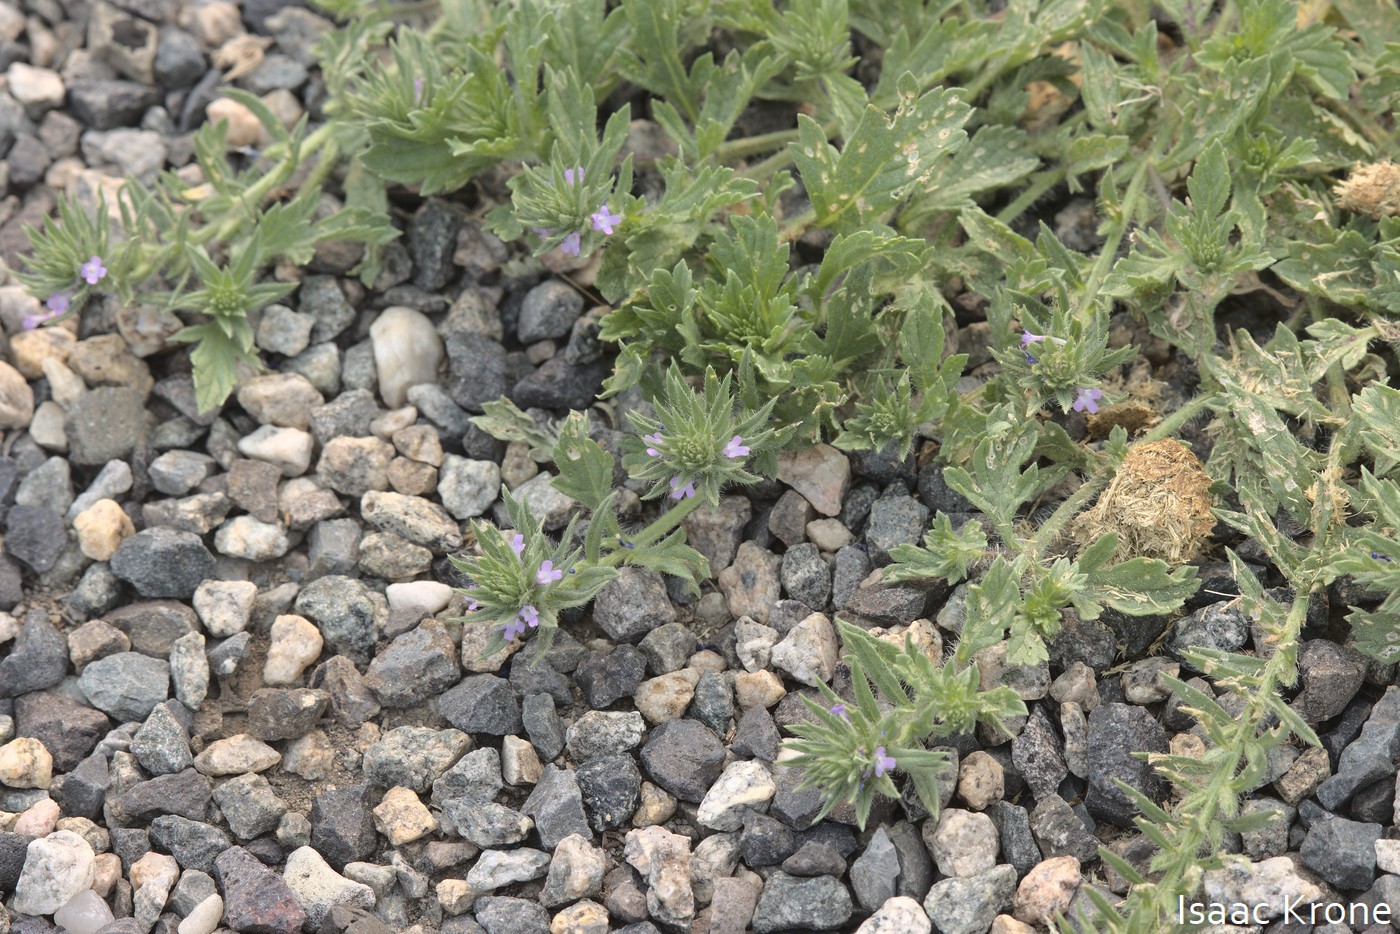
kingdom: Plantae
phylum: Tracheophyta
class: Magnoliopsida
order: Lamiales
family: Verbenaceae
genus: Verbena
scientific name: Verbena bracteata
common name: Bracted vervain
